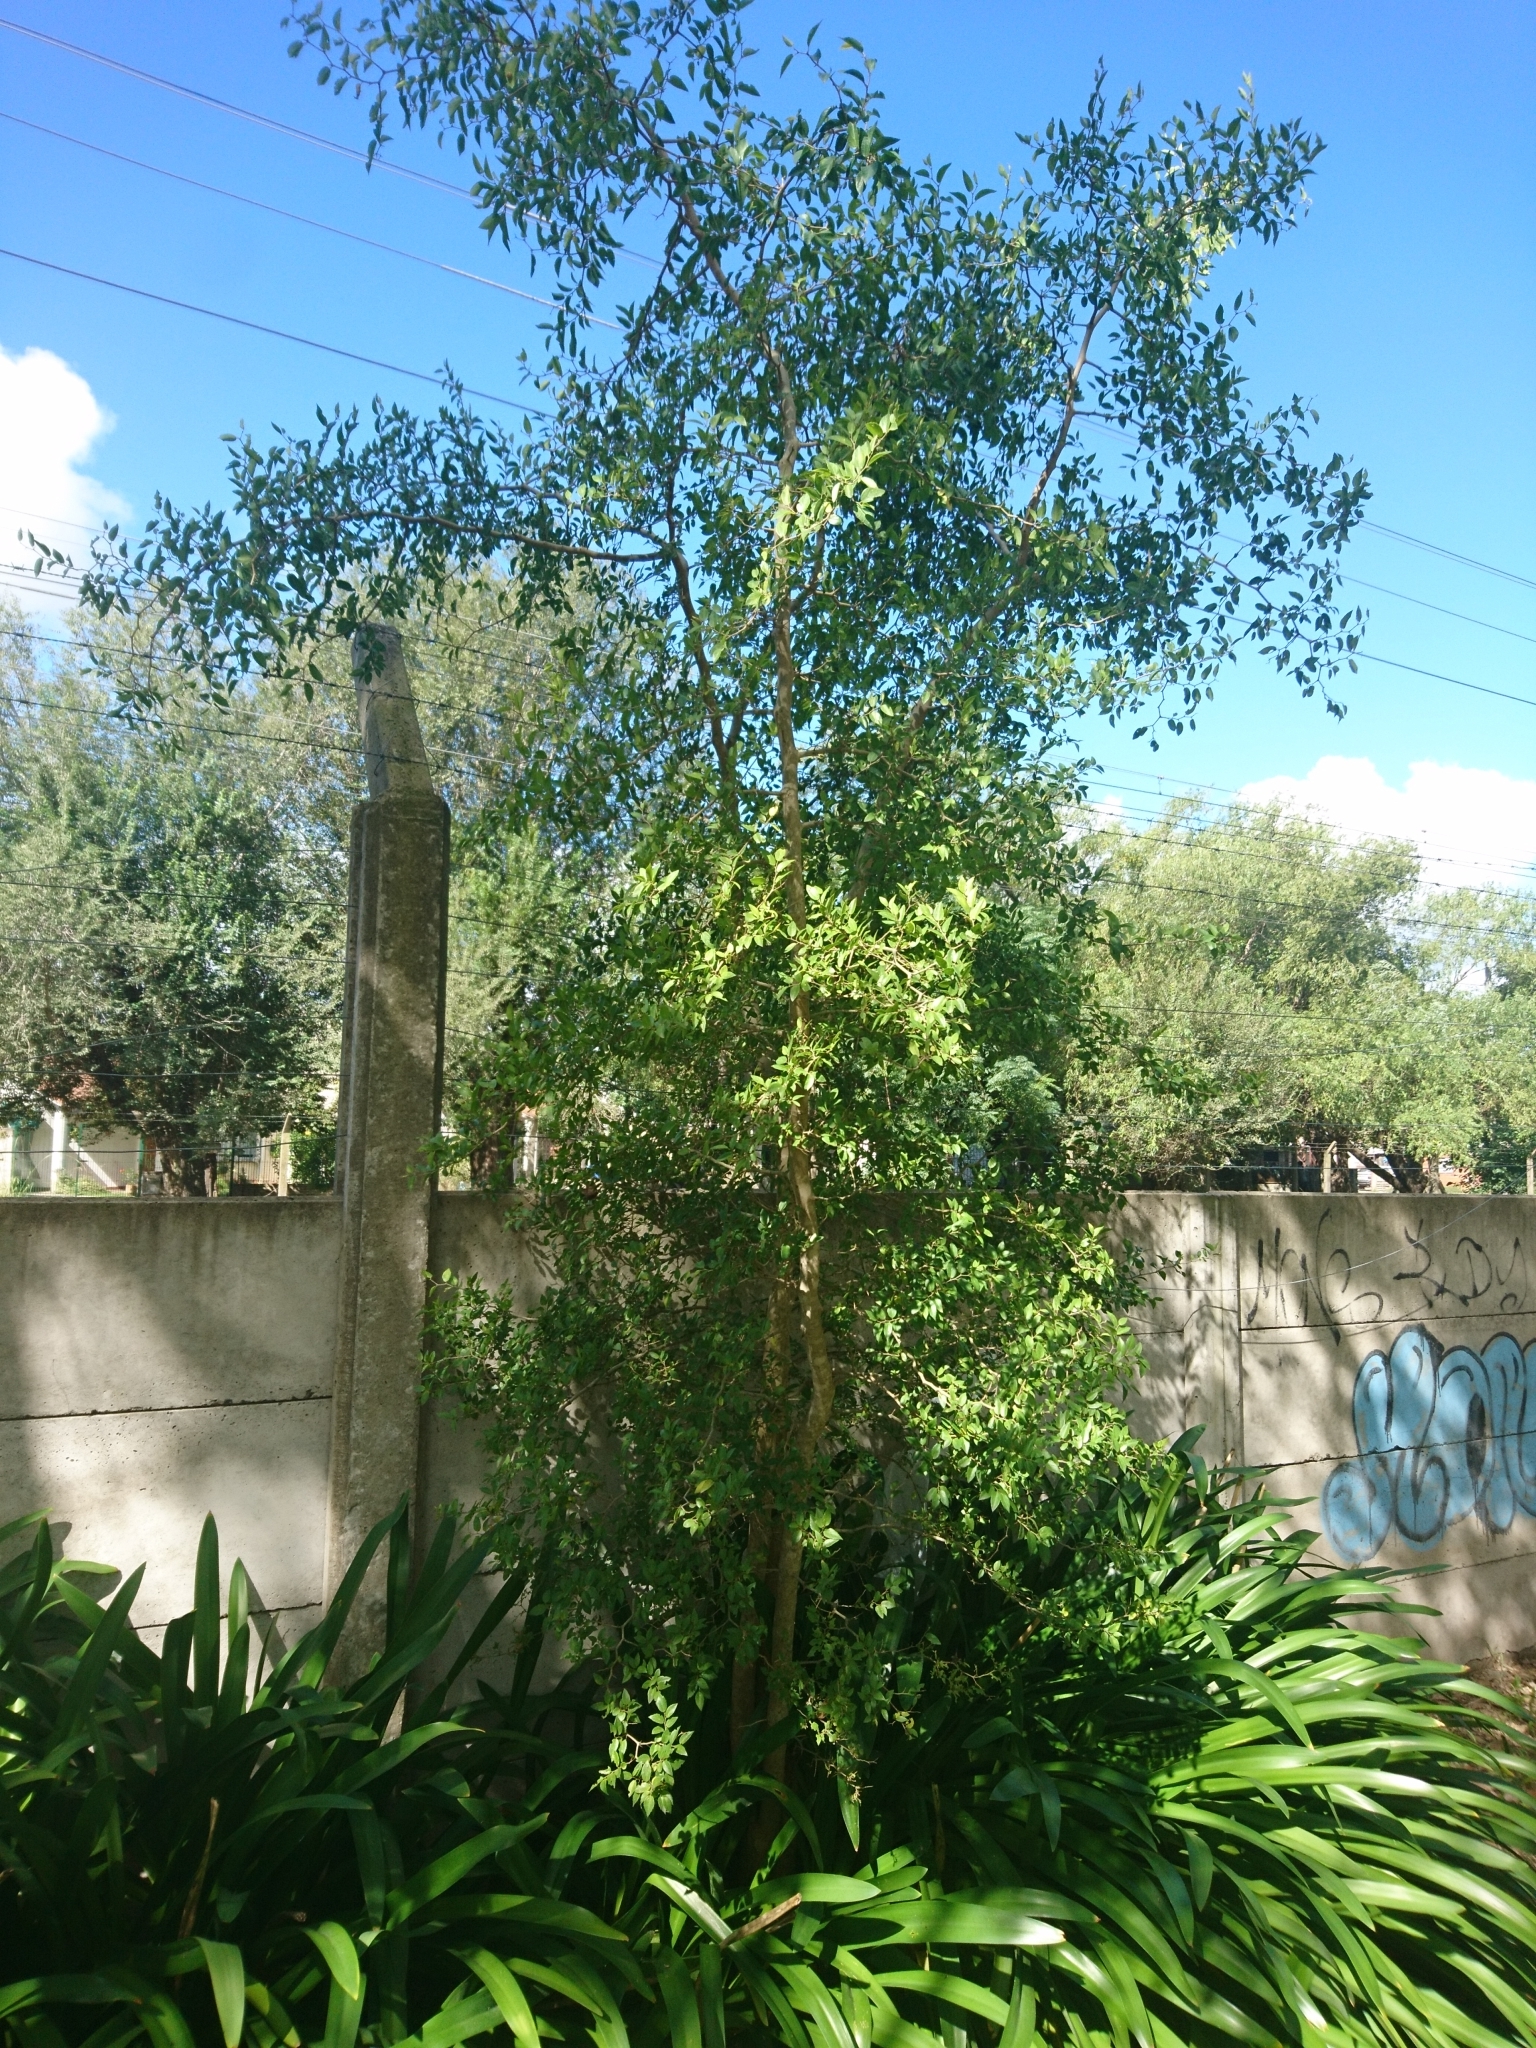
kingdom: Plantae
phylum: Tracheophyta
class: Magnoliopsida
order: Rosales
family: Cannabaceae
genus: Celtis
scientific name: Celtis tala
